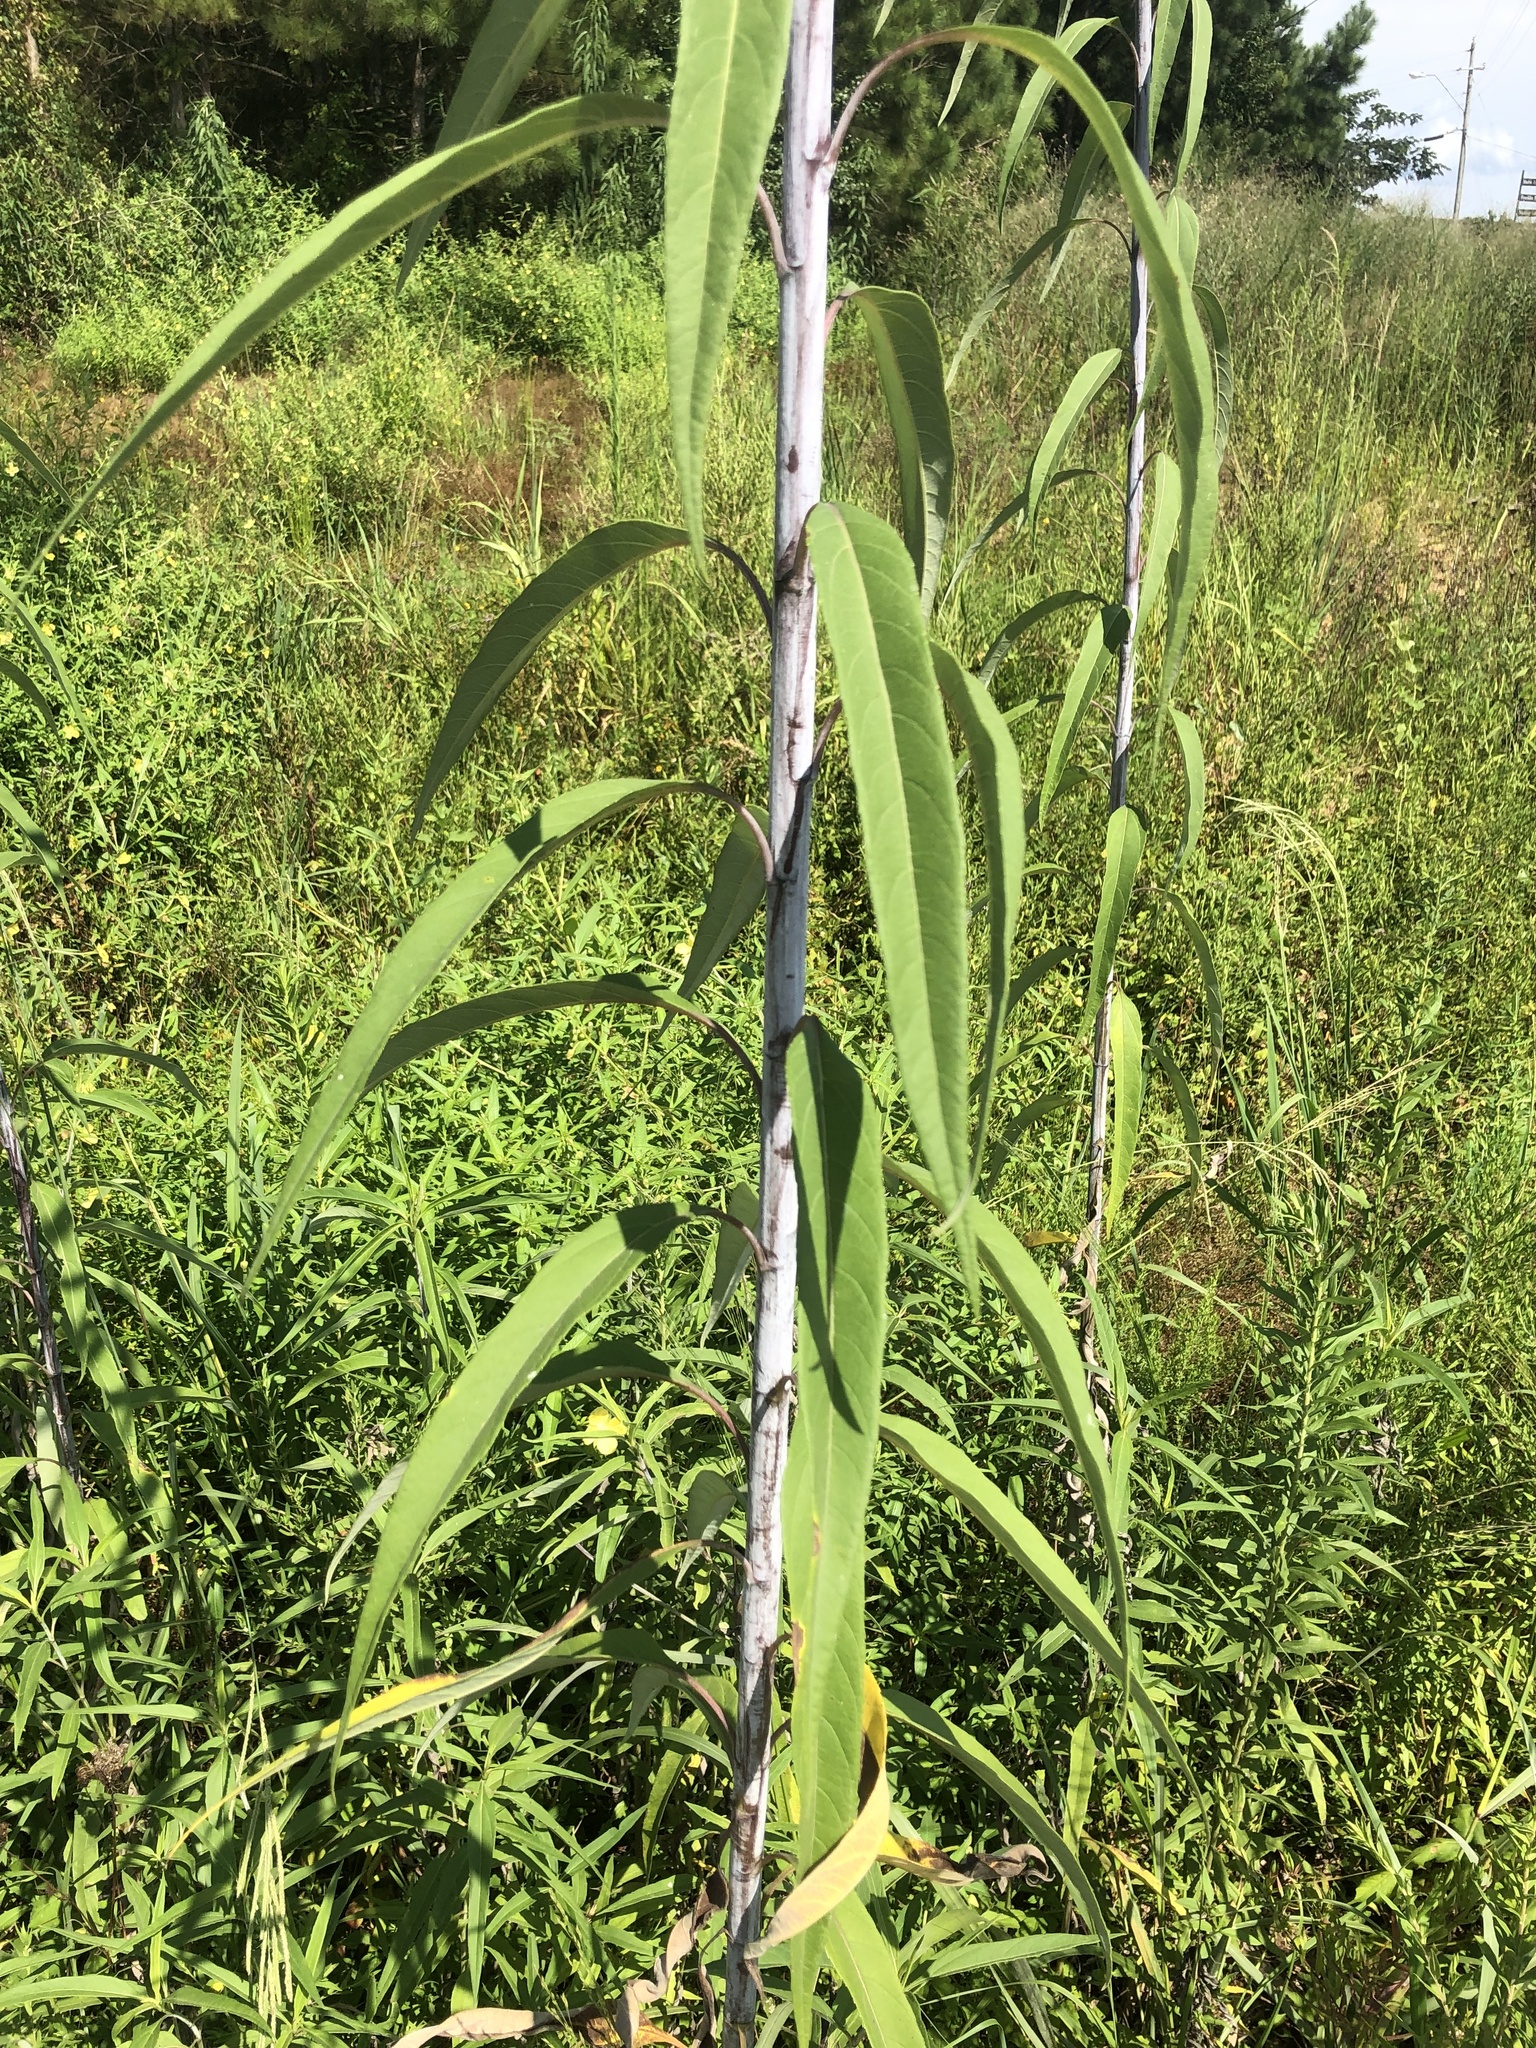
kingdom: Plantae
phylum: Tracheophyta
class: Magnoliopsida
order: Asterales
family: Asteraceae
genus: Helianthus
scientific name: Helianthus grosseserratus
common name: Sawtooth sunflower
